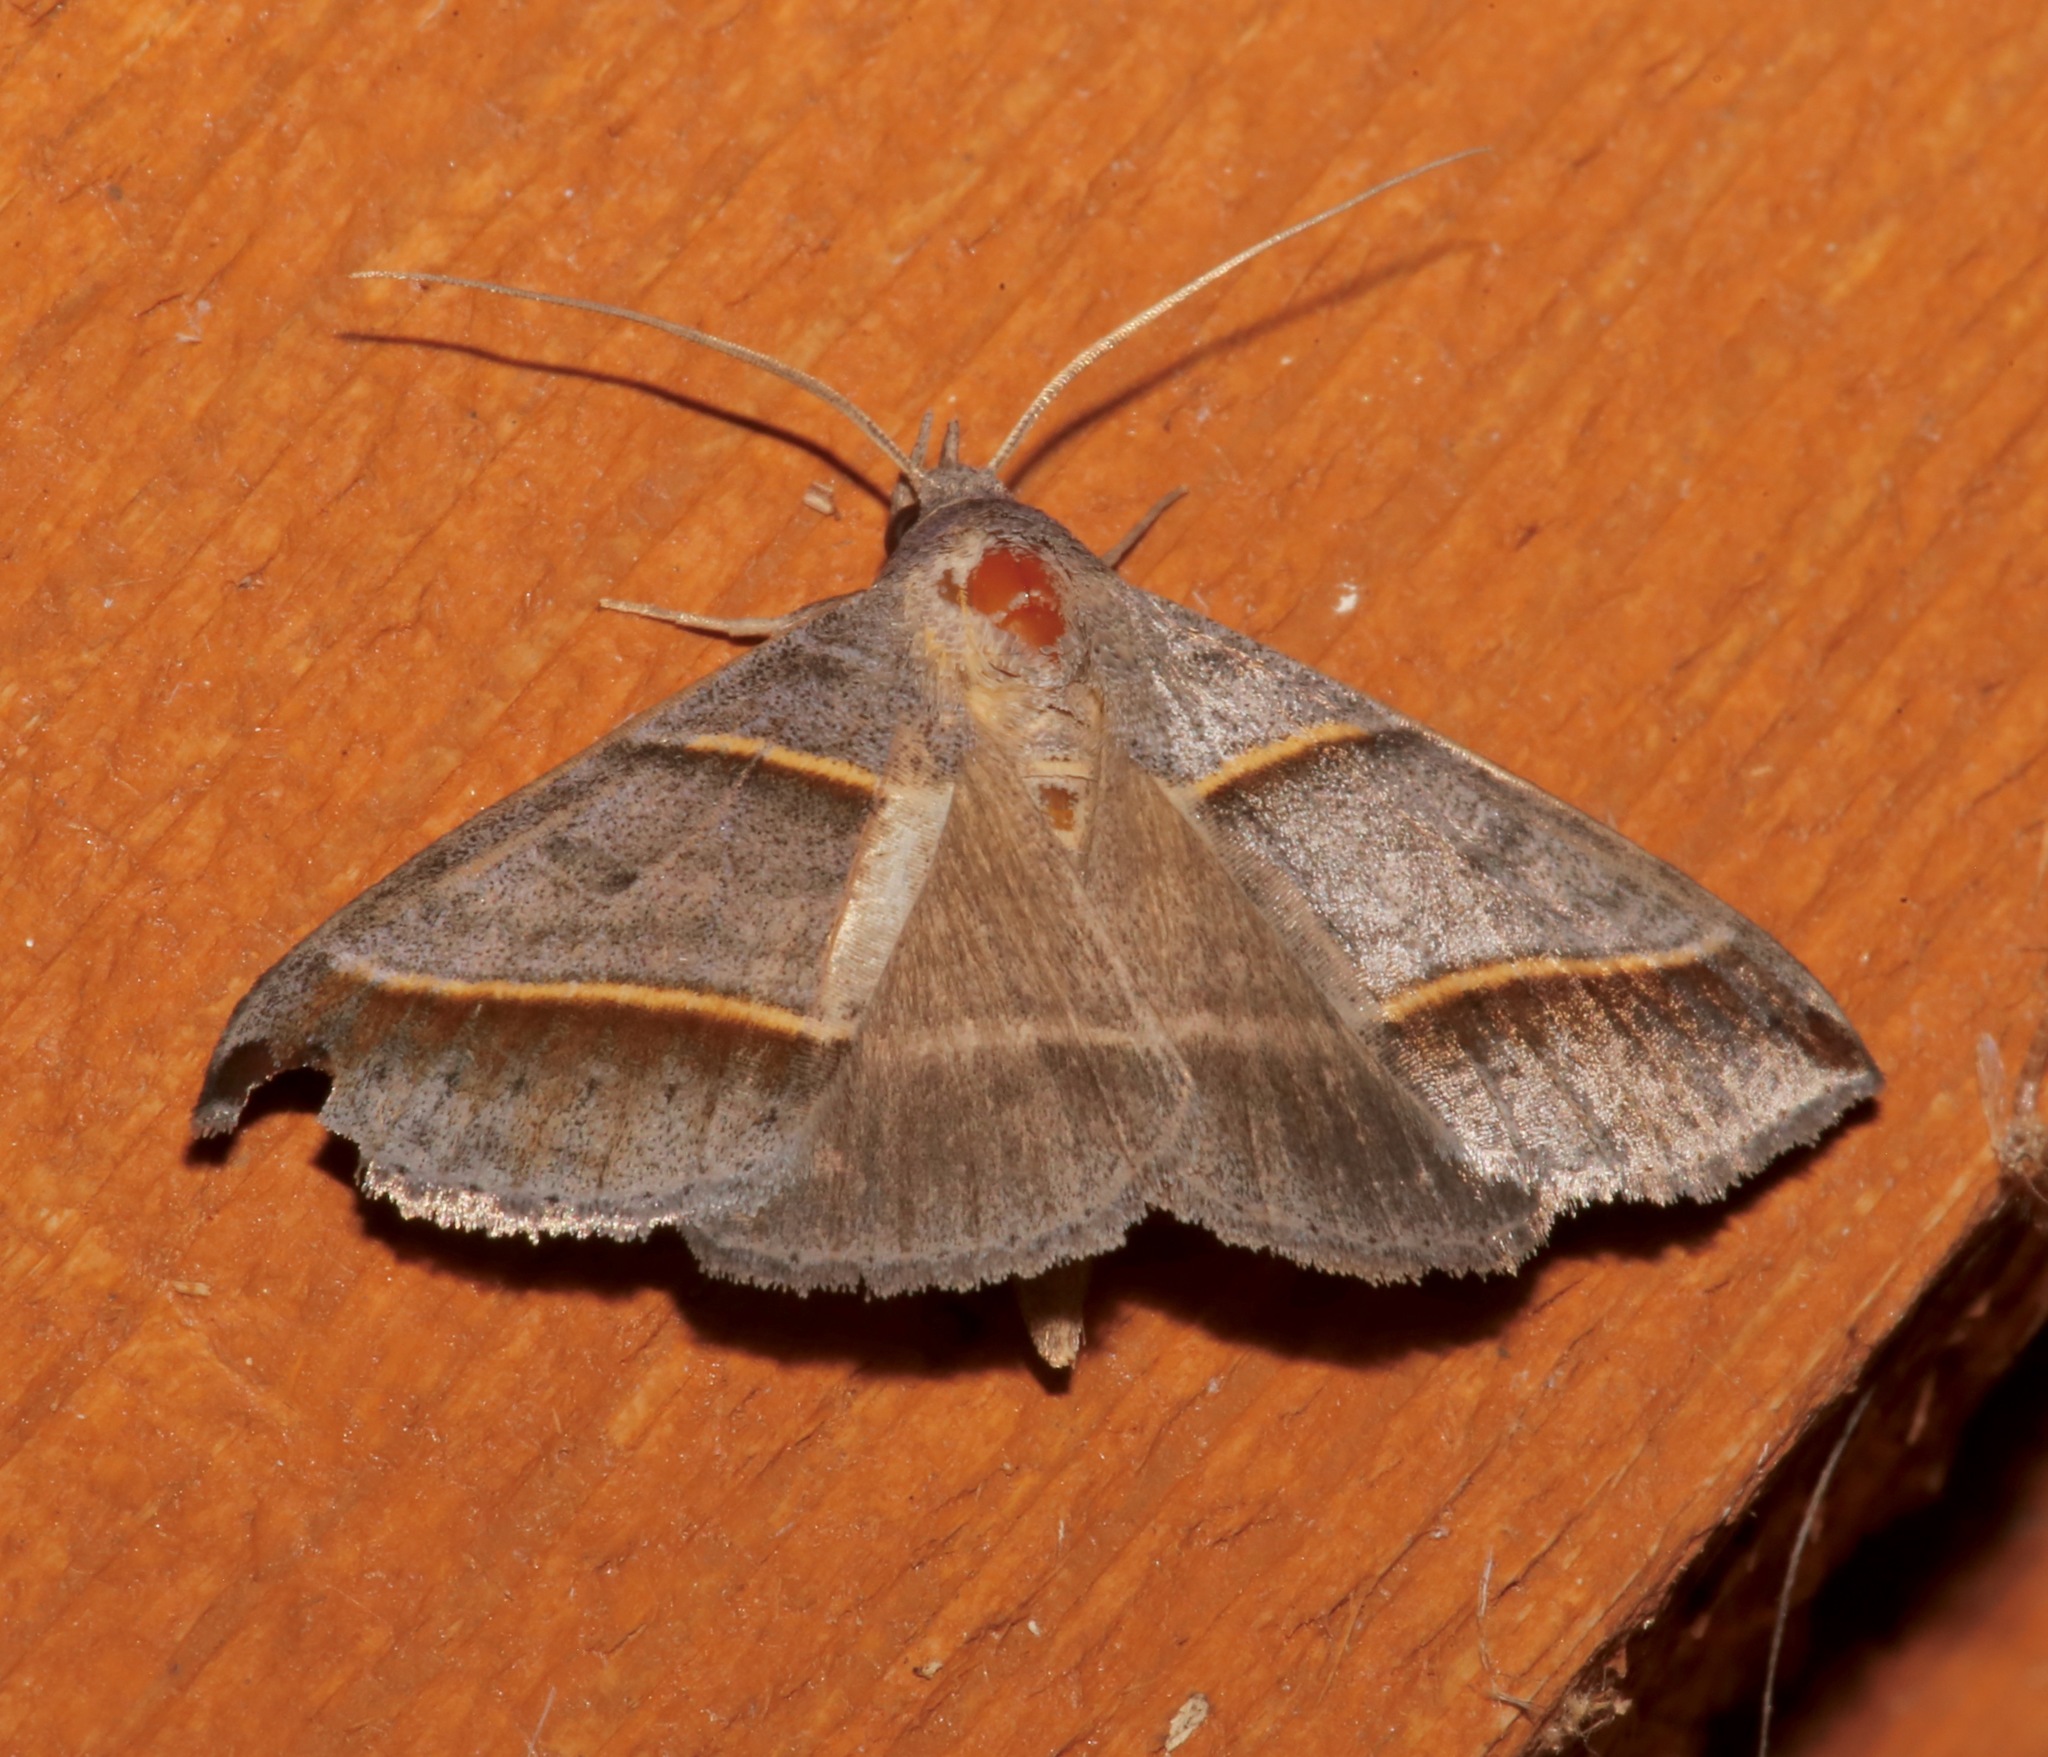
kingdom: Animalia
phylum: Arthropoda
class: Insecta
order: Lepidoptera
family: Erebidae
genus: Ptichodis
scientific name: Ptichodis vinculum
